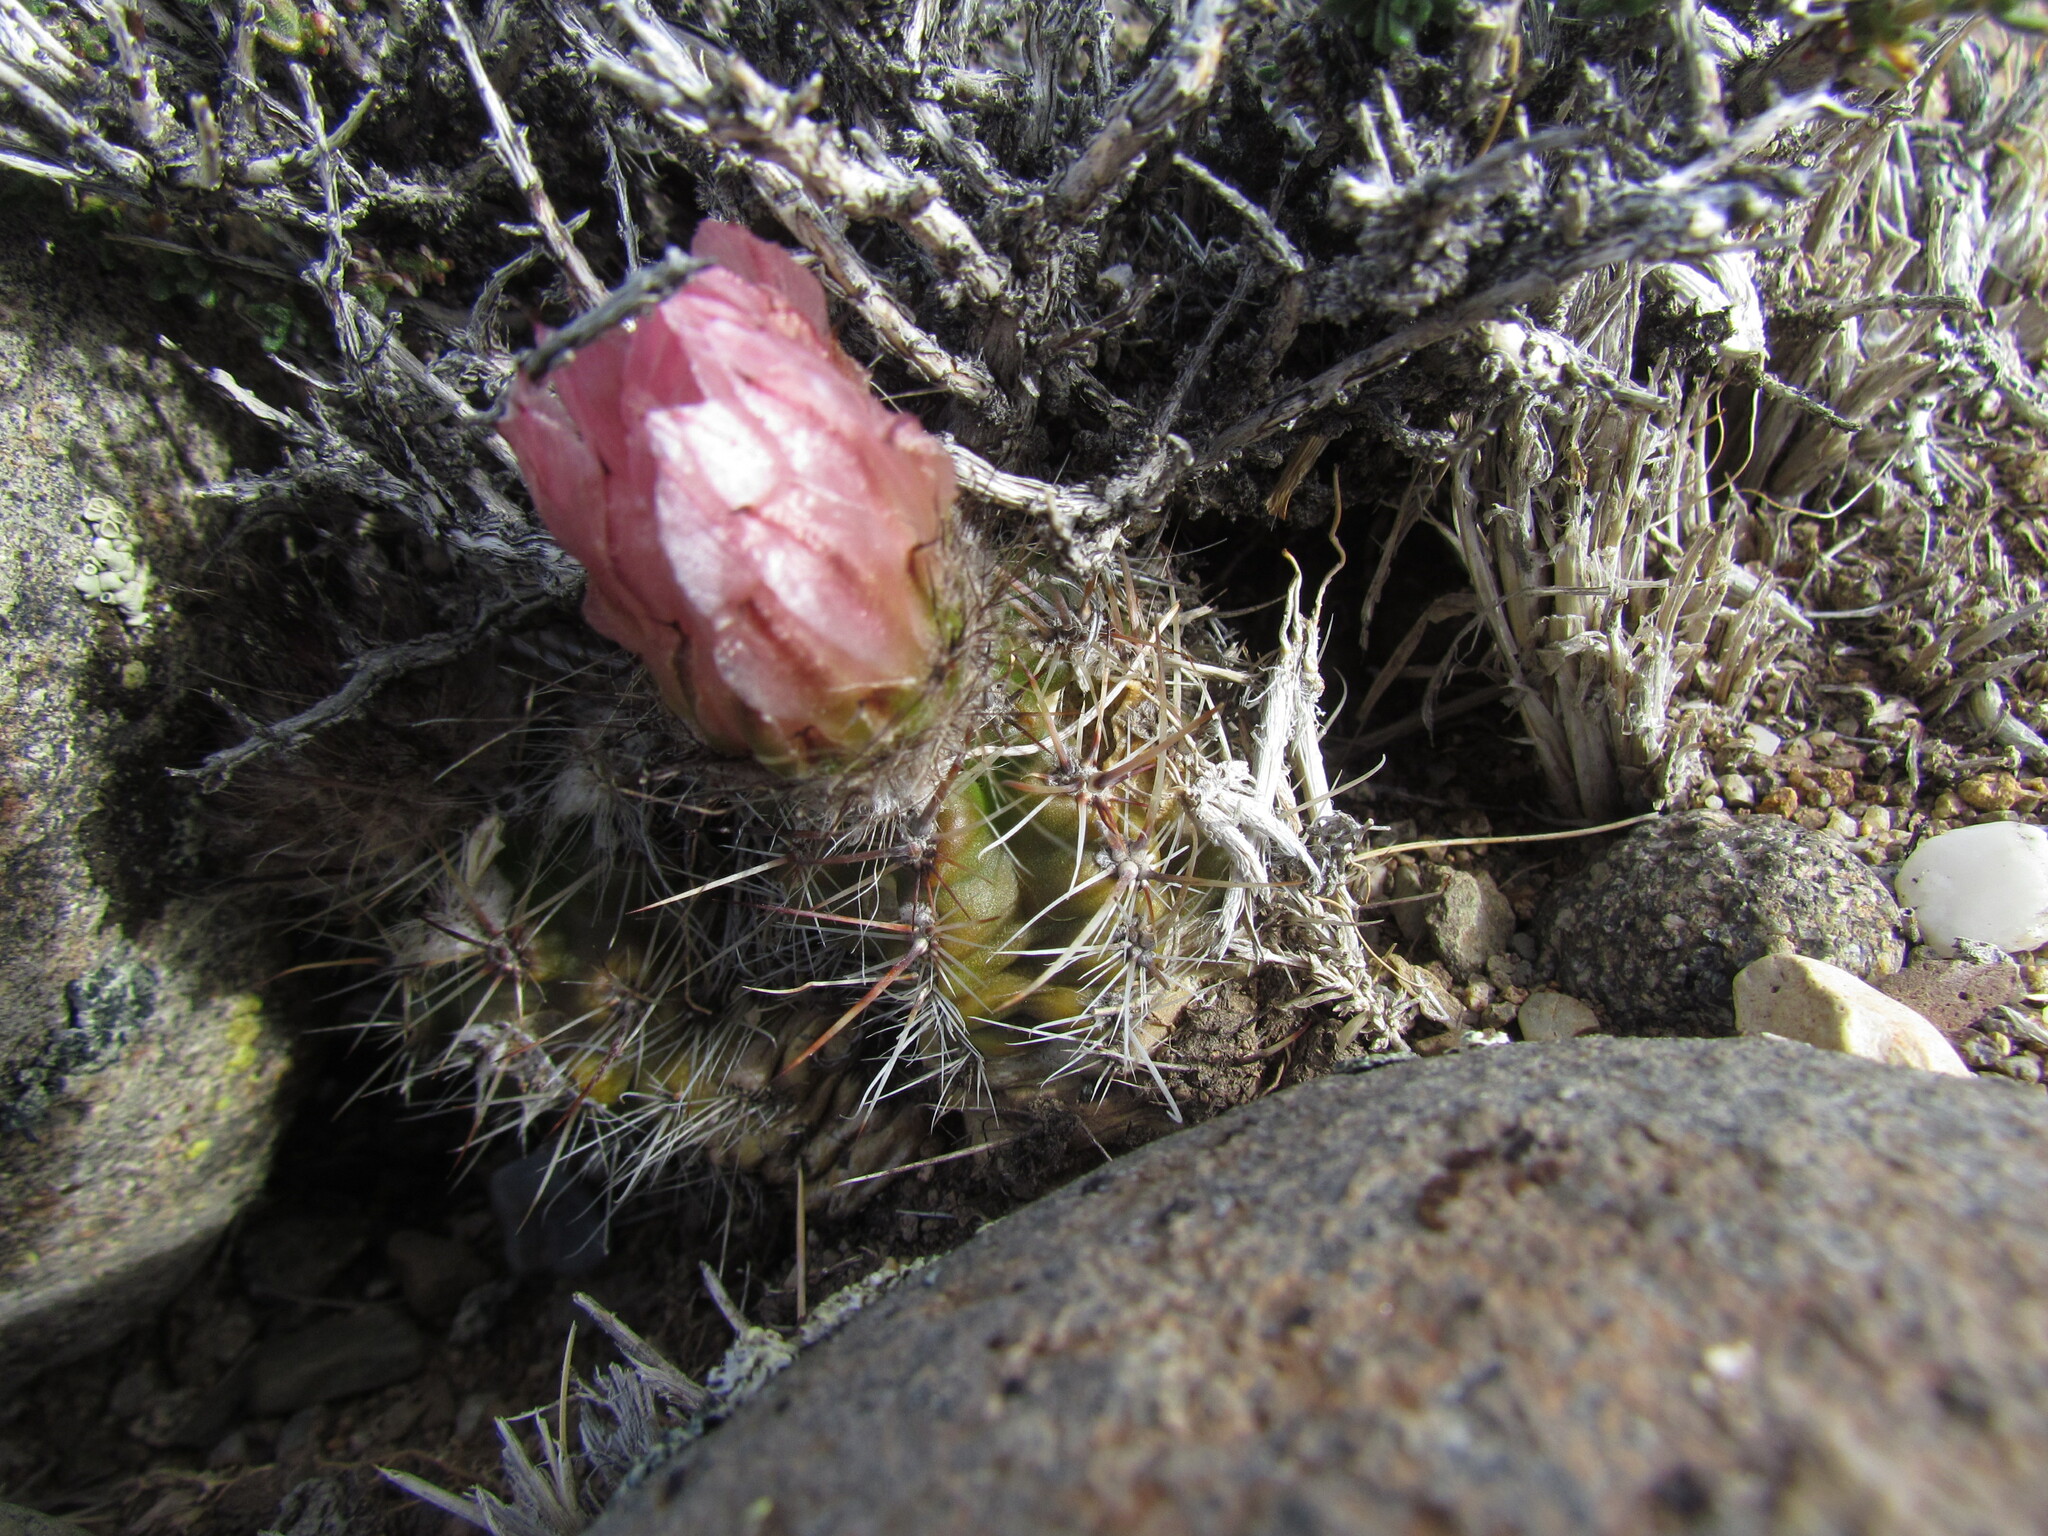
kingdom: Plantae
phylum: Tracheophyta
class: Magnoliopsida
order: Caryophyllales
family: Cactaceae
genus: Austrocactus
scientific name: Austrocactus aonikenkensis
